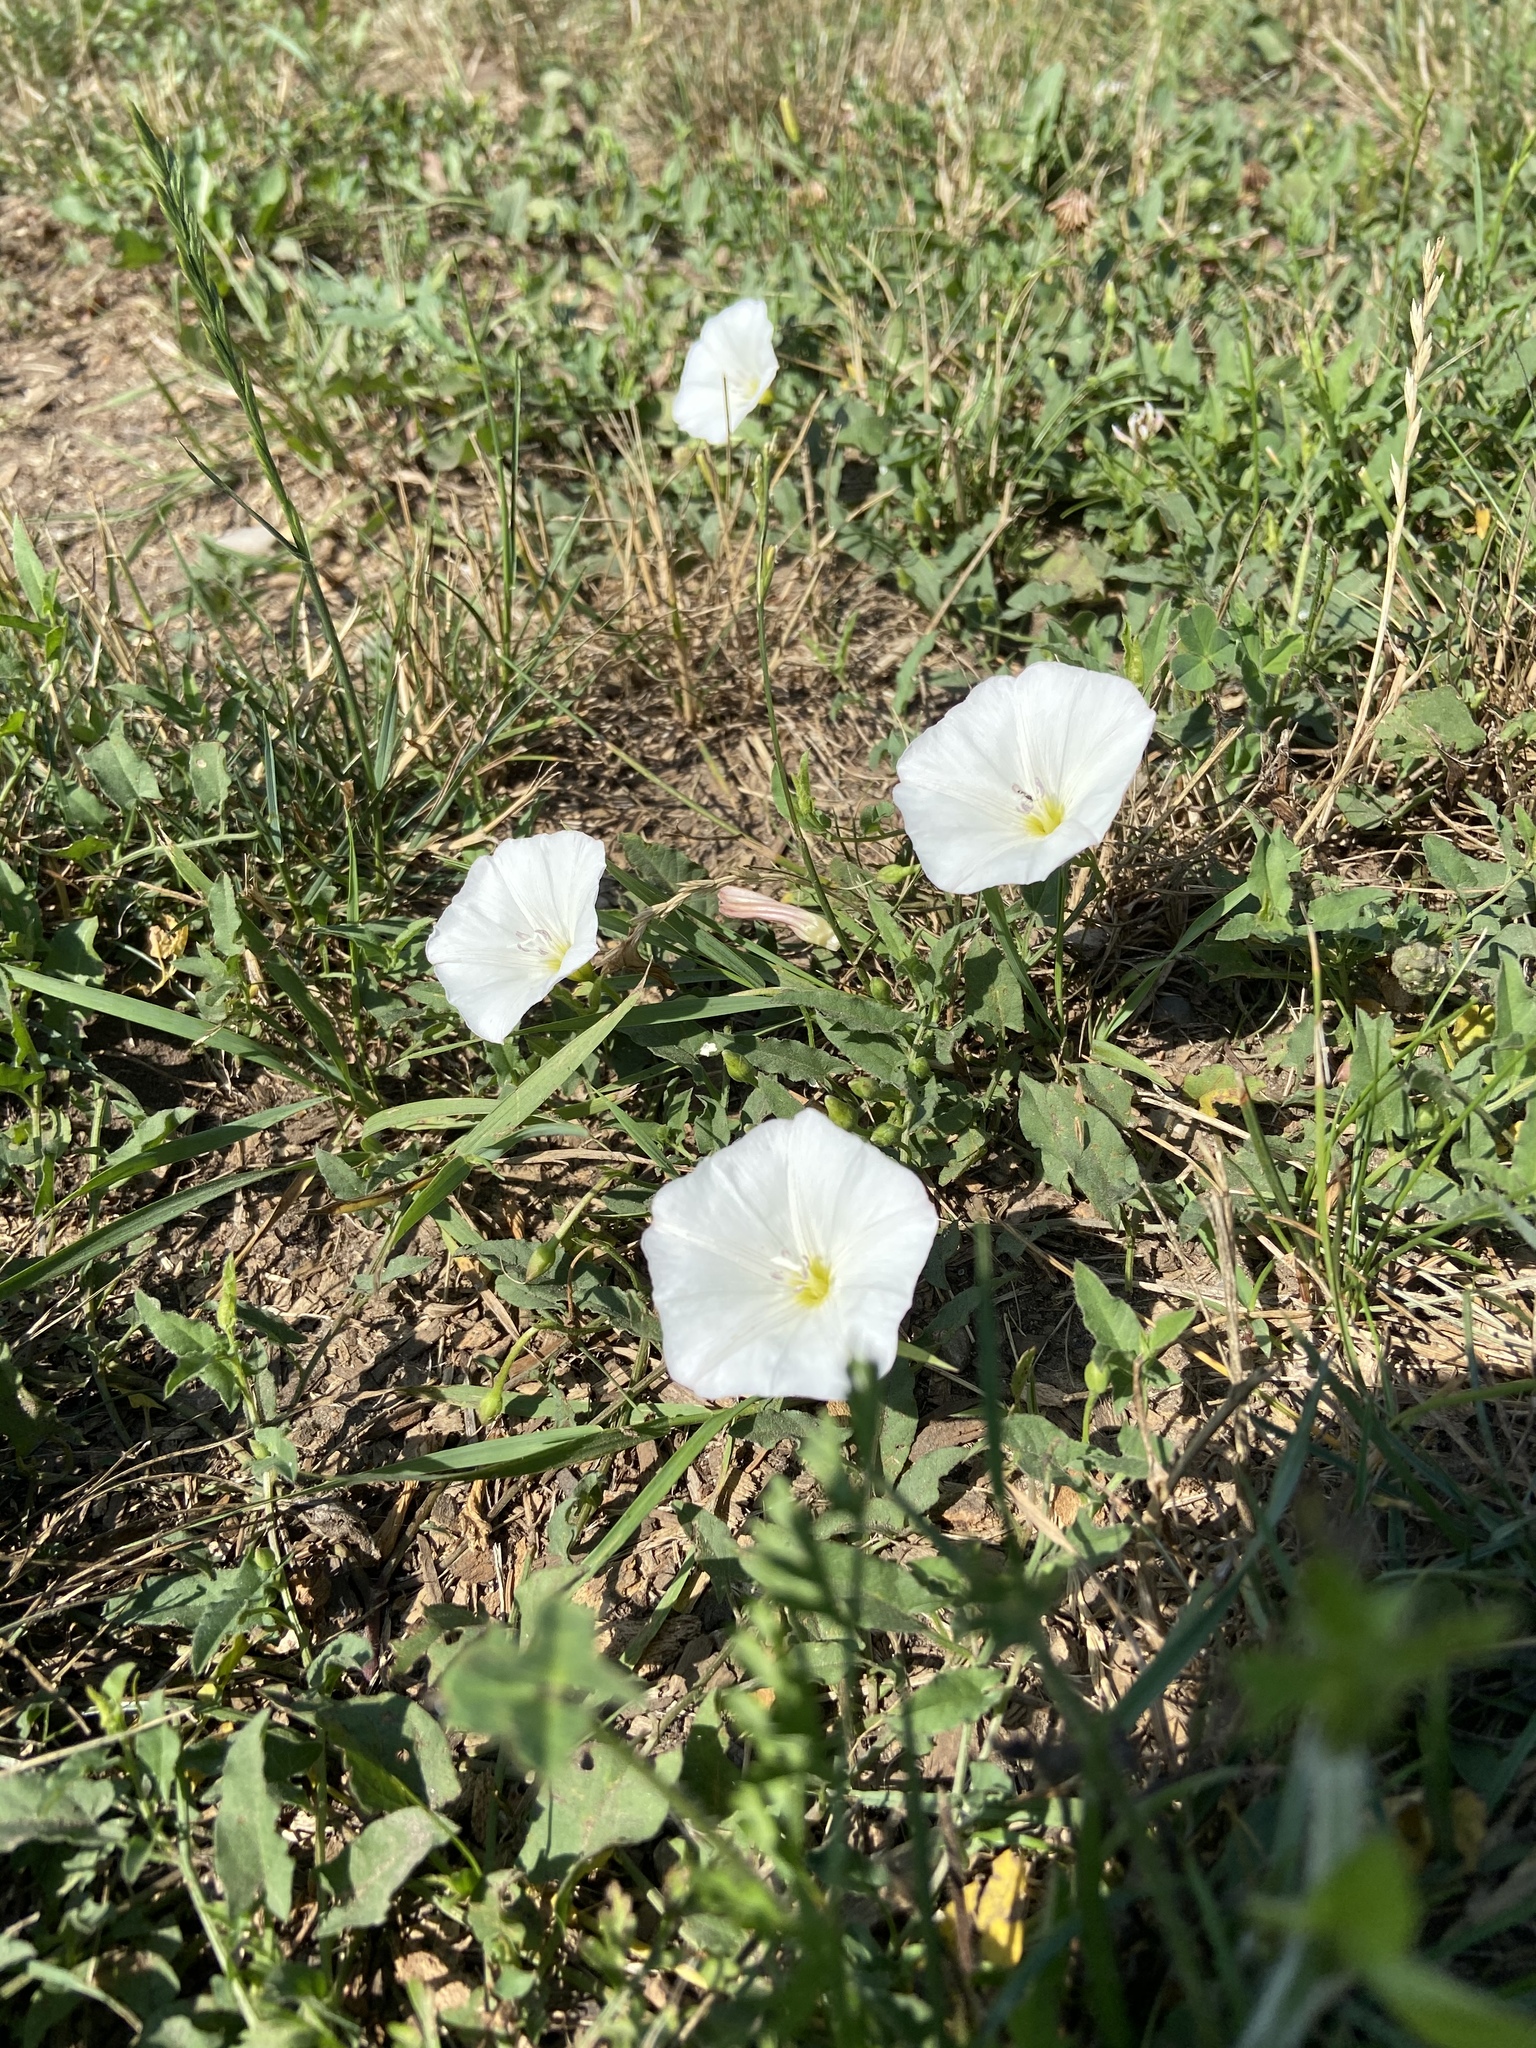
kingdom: Plantae
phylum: Tracheophyta
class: Magnoliopsida
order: Solanales
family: Convolvulaceae
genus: Convolvulus
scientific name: Convolvulus arvensis
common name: Field bindweed
